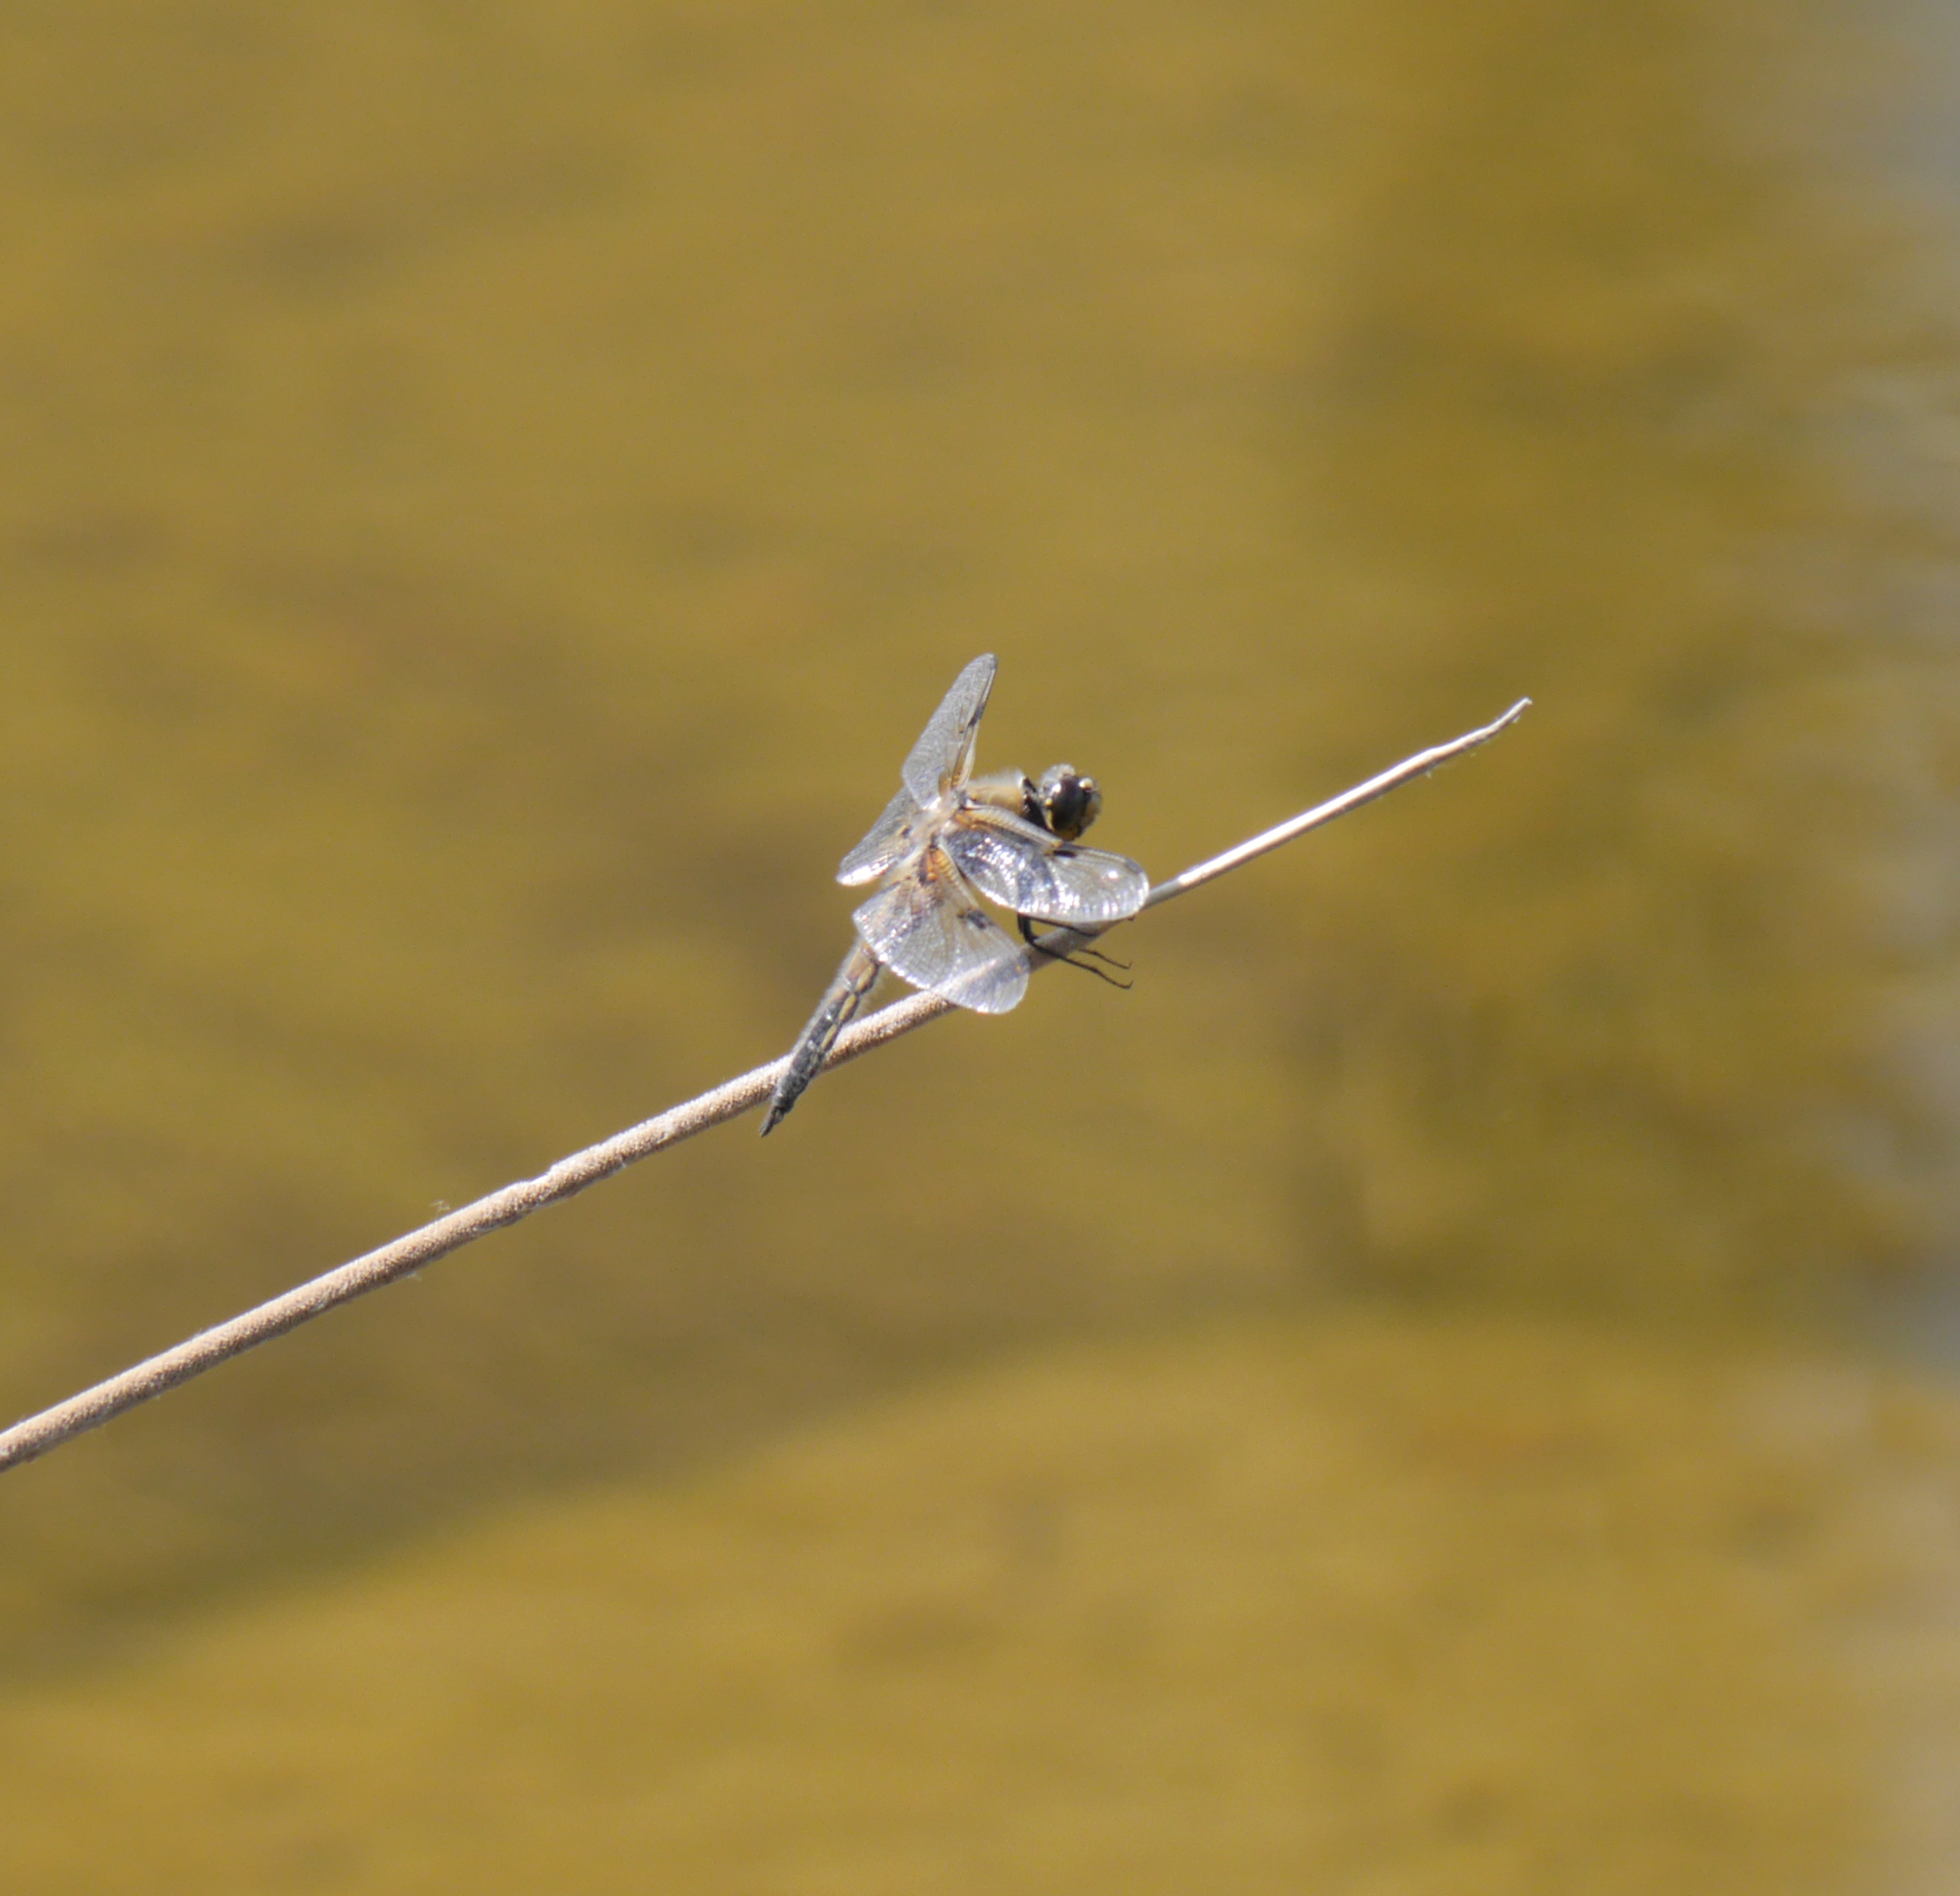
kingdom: Animalia
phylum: Arthropoda
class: Insecta
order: Odonata
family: Libellulidae
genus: Libellula
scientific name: Libellula quadrimaculata
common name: Four-spotted chaser
